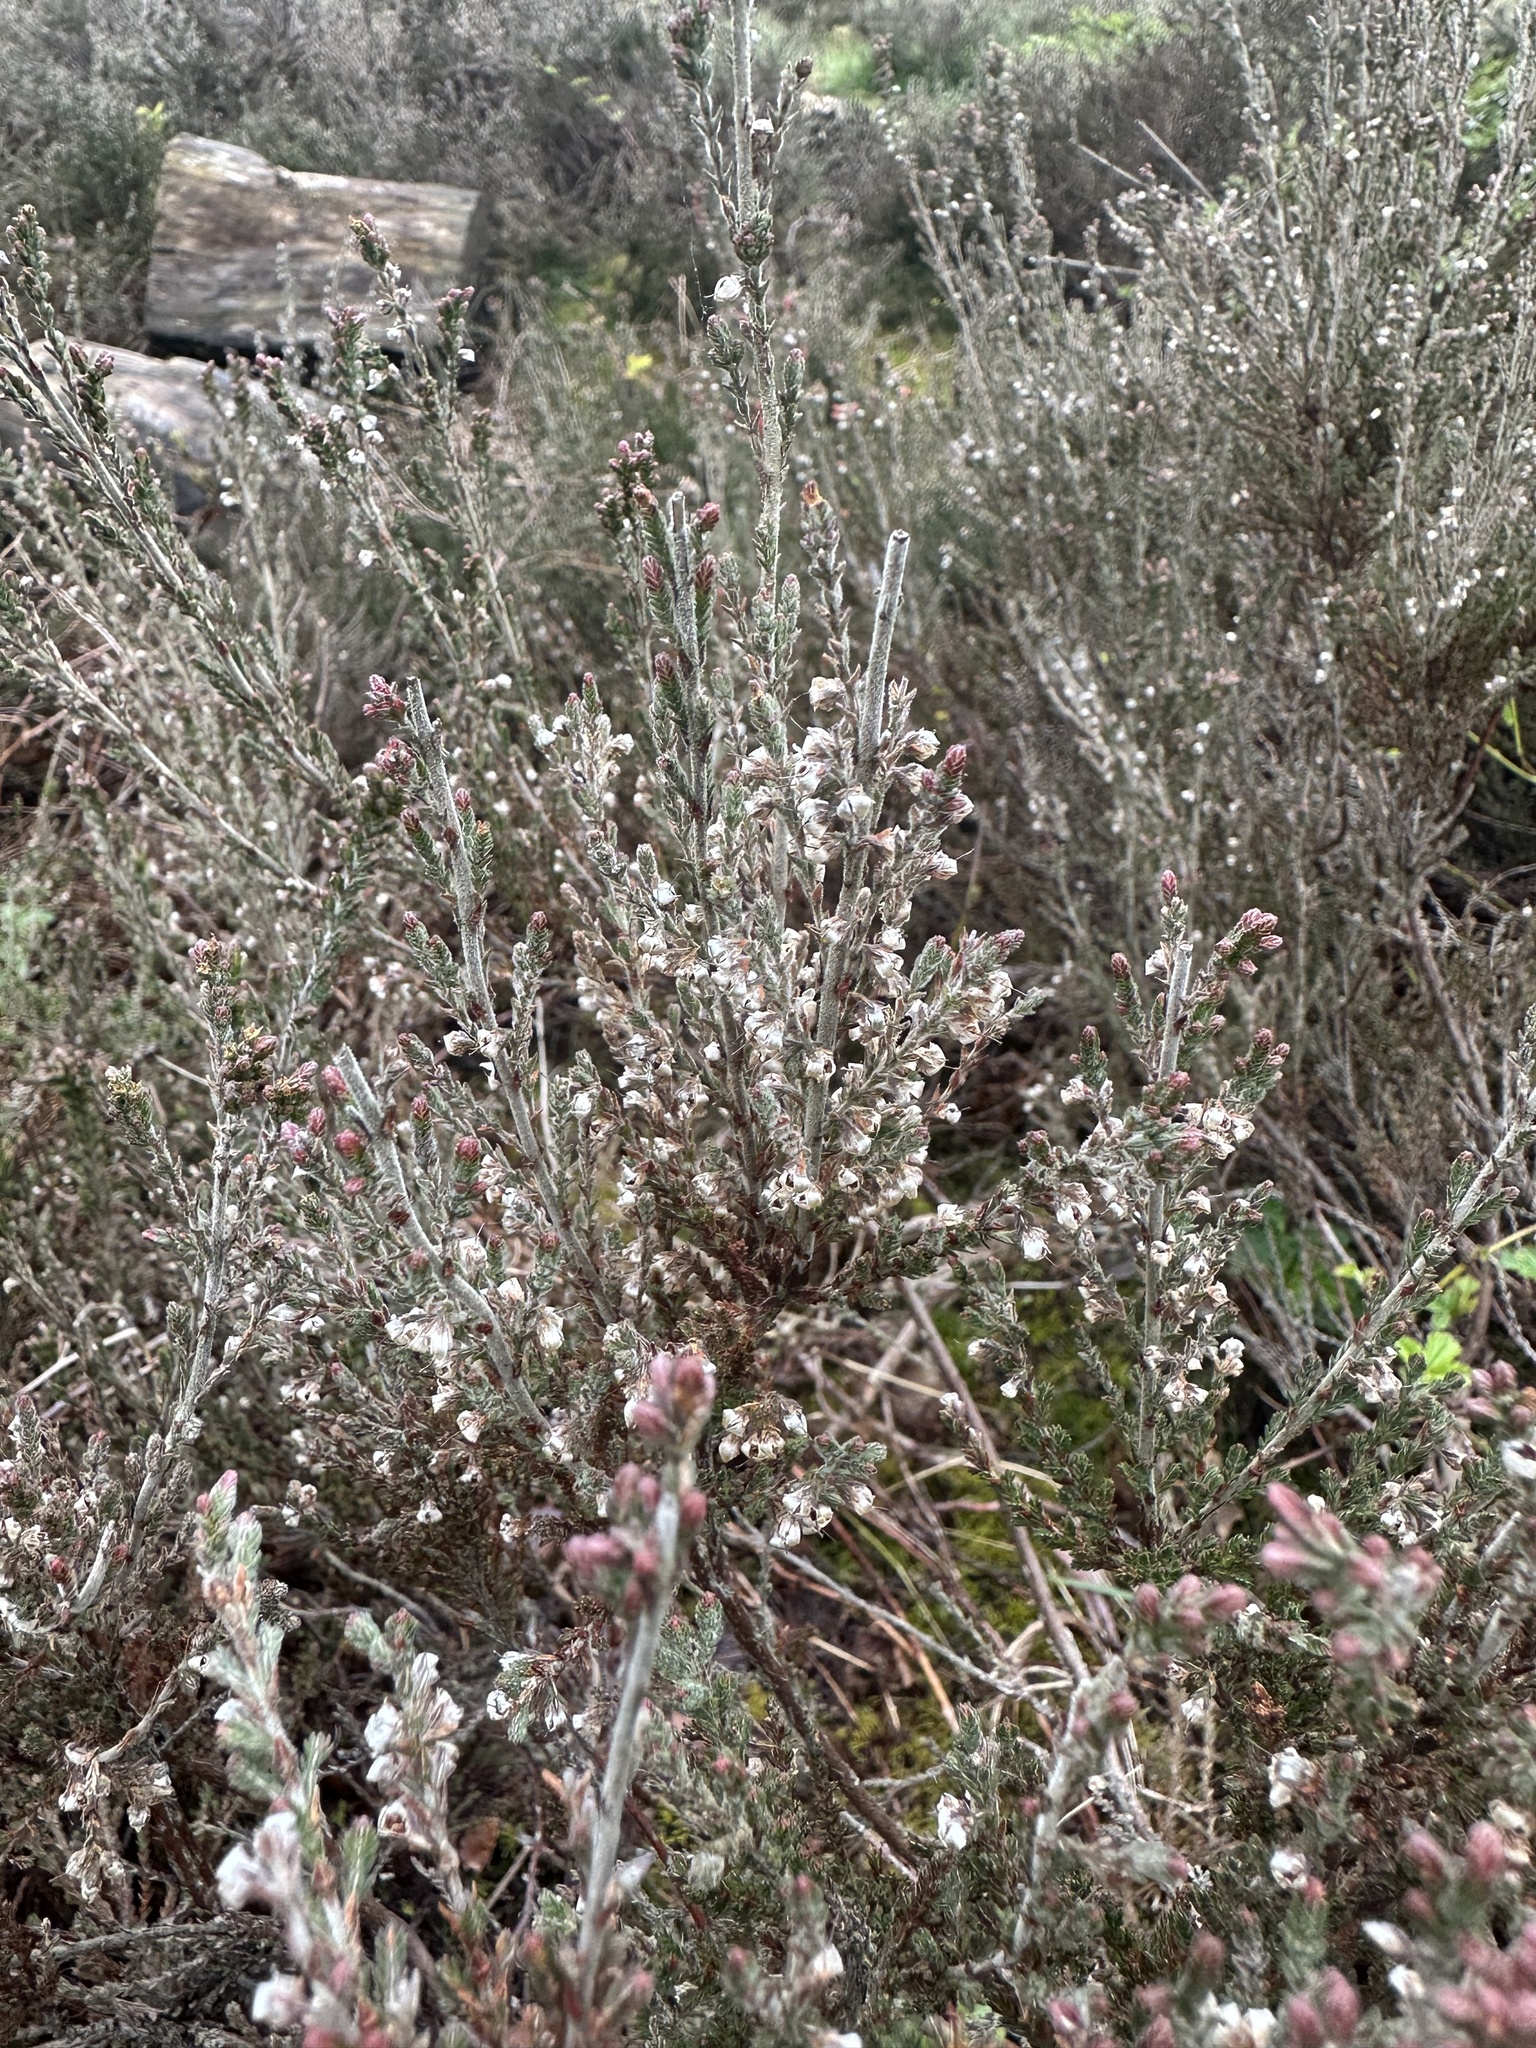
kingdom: Plantae
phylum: Tracheophyta
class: Magnoliopsida
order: Ericales
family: Ericaceae
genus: Calluna
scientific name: Calluna vulgaris
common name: Heather
